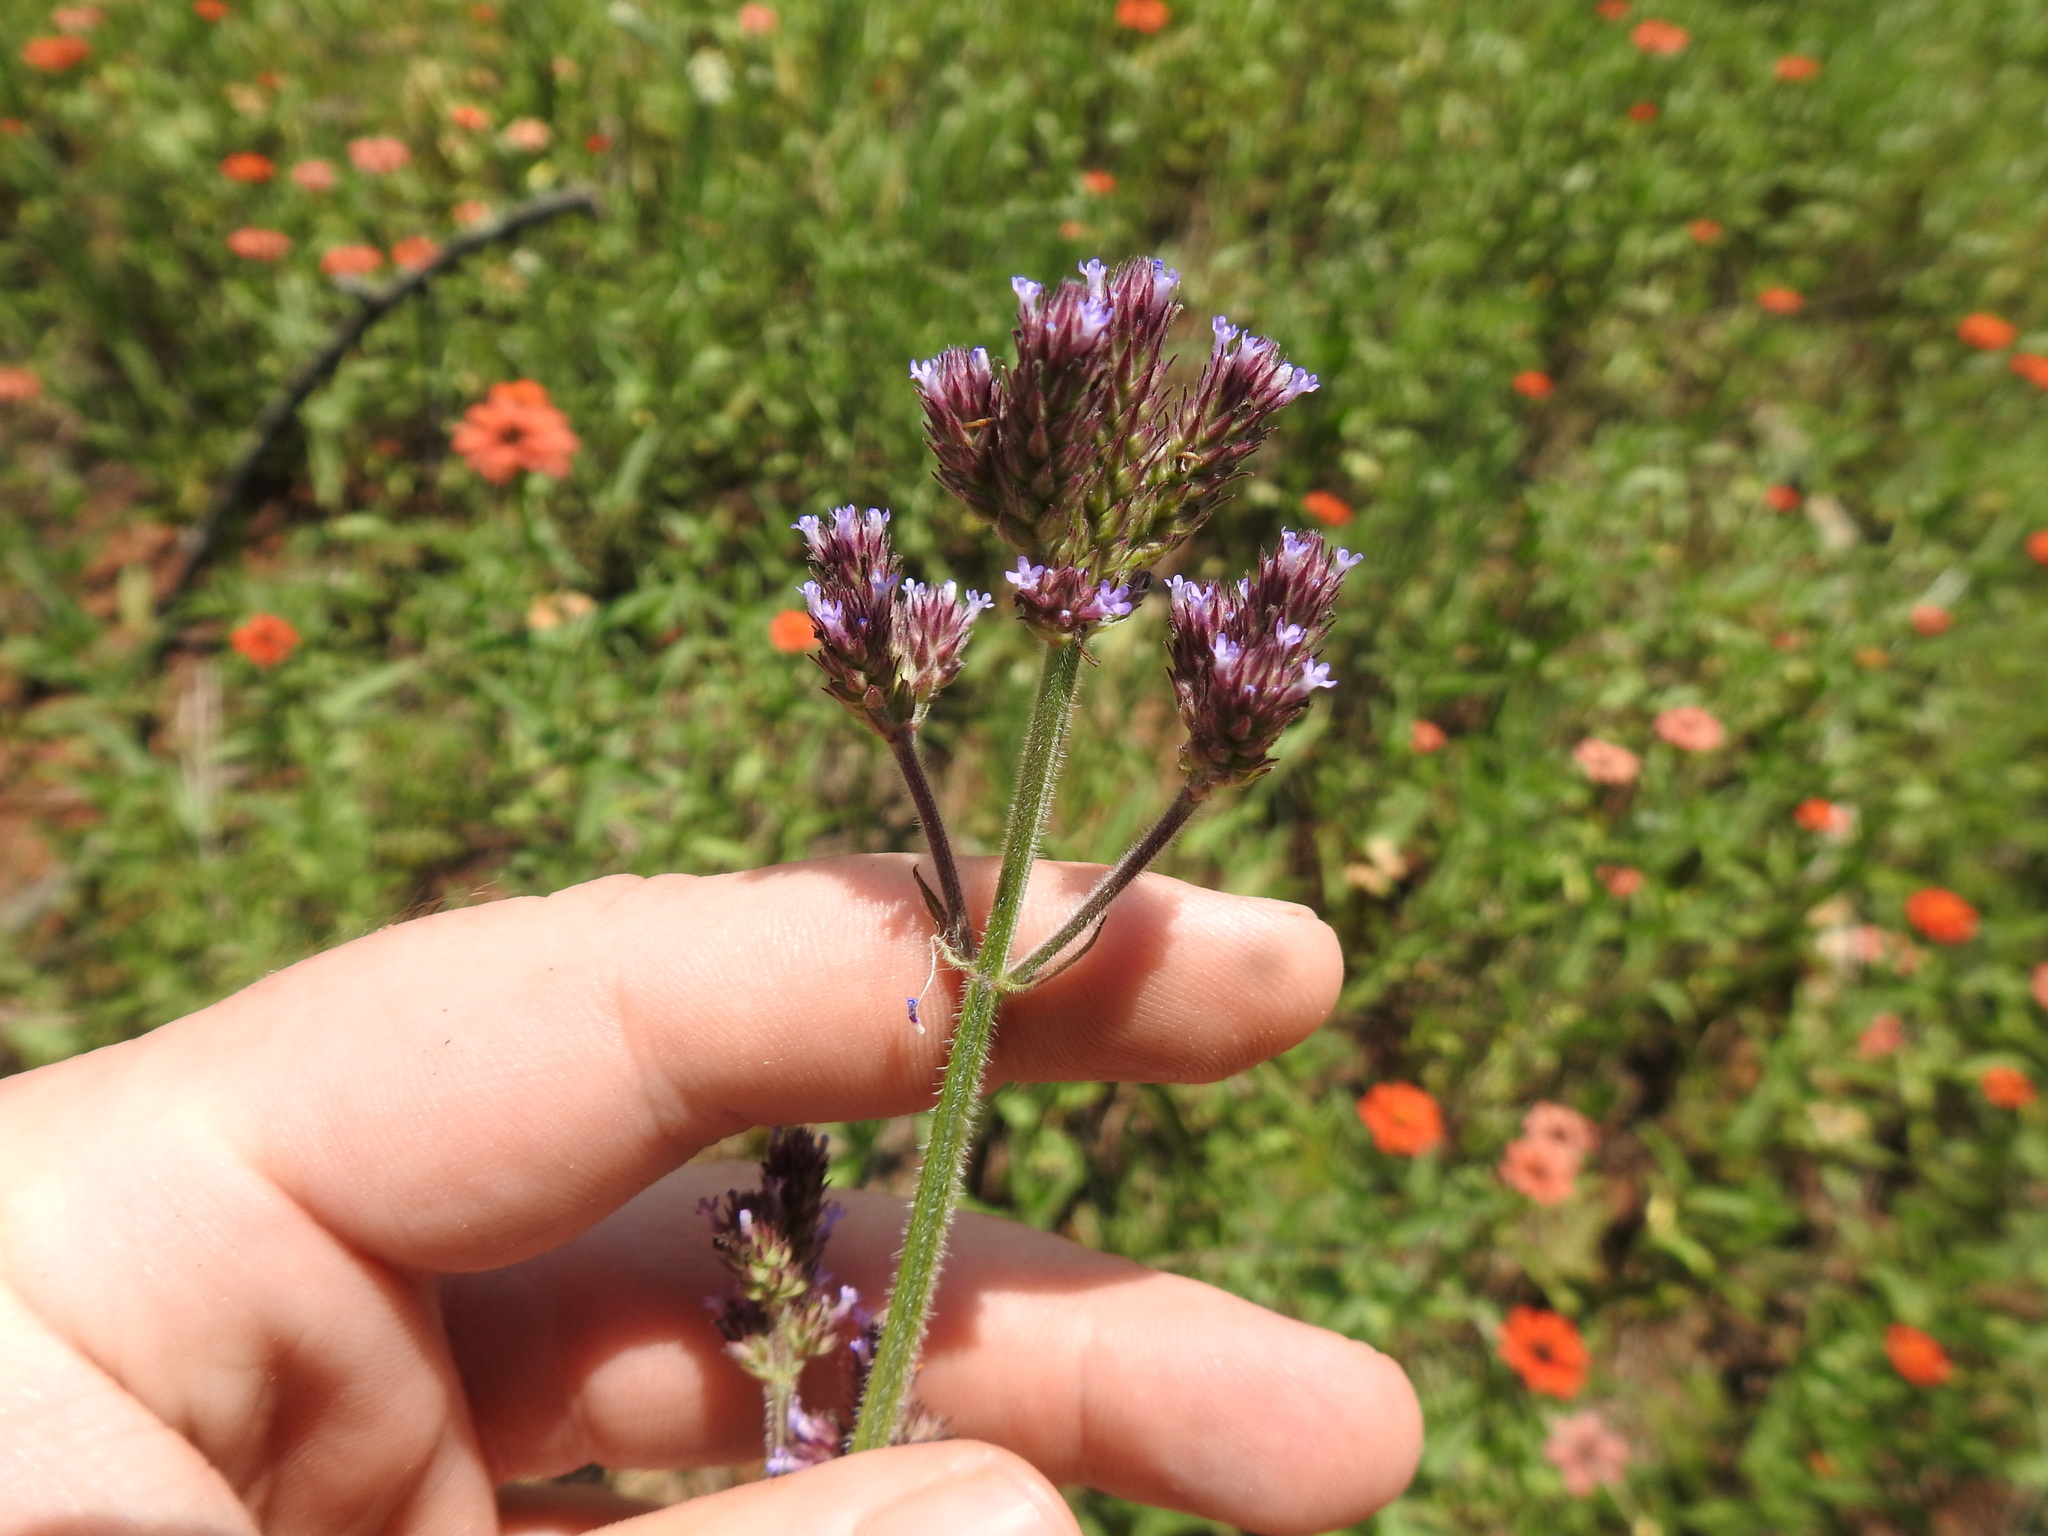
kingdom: Plantae
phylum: Tracheophyta
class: Magnoliopsida
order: Lamiales
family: Verbenaceae
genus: Verbena
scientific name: Verbena bonariensis
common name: Purpletop vervain
